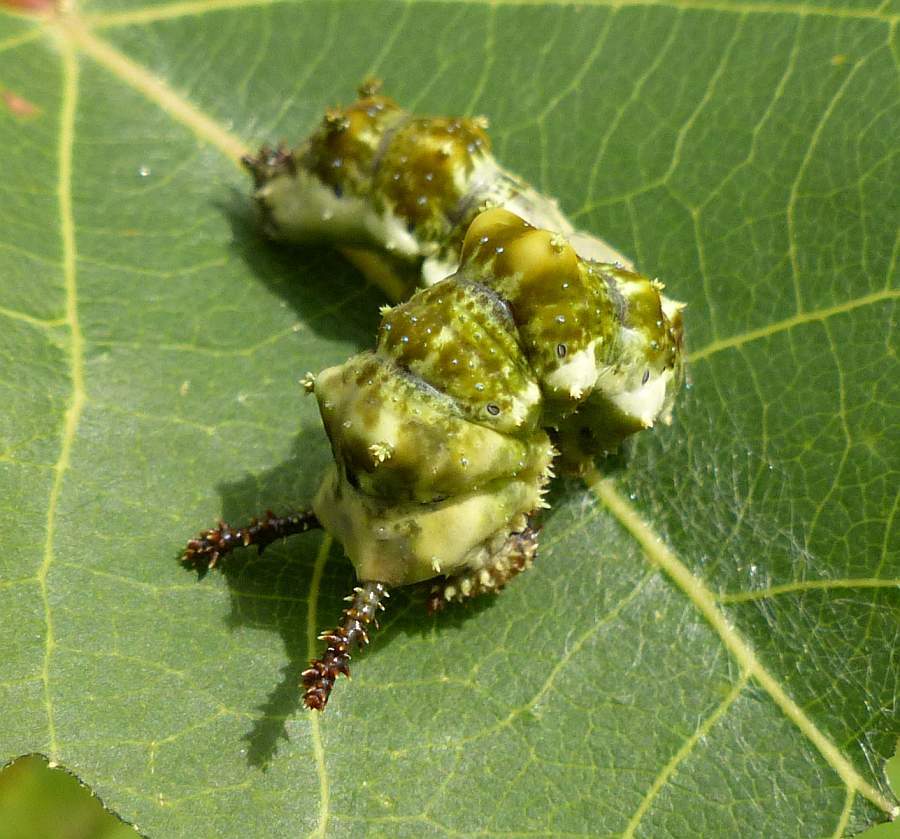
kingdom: Animalia
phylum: Arthropoda
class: Insecta
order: Lepidoptera
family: Nymphalidae
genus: Limenitis
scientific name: Limenitis
